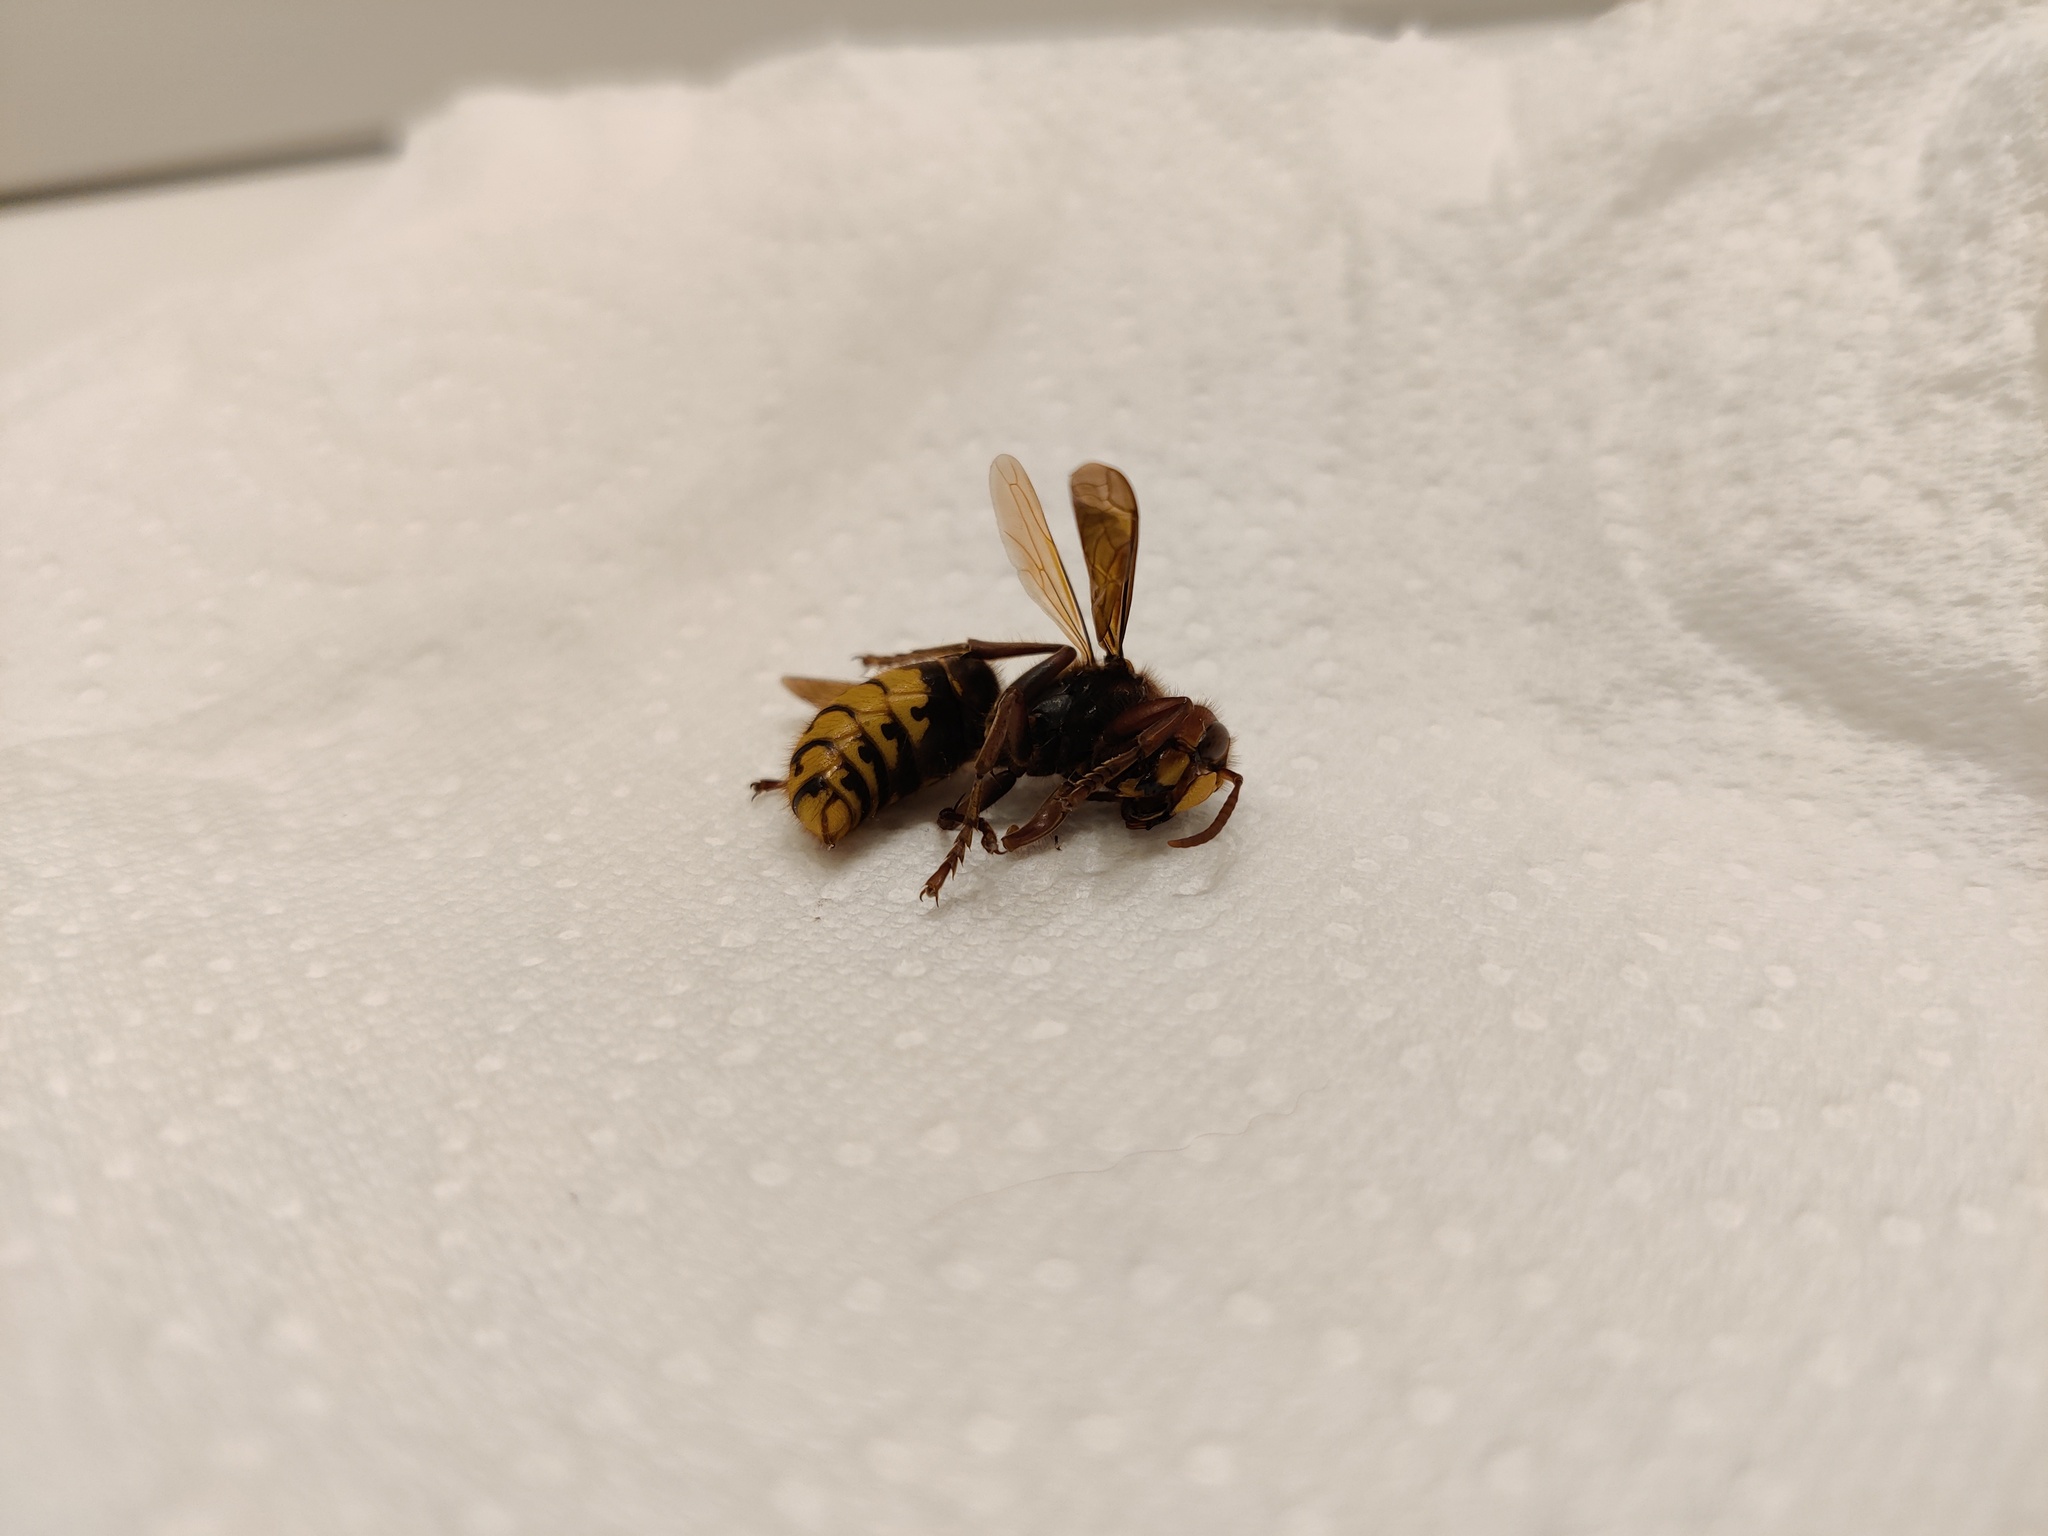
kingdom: Animalia
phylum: Arthropoda
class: Insecta
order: Hymenoptera
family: Vespidae
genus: Vespa
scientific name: Vespa crabro
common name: Hornet
